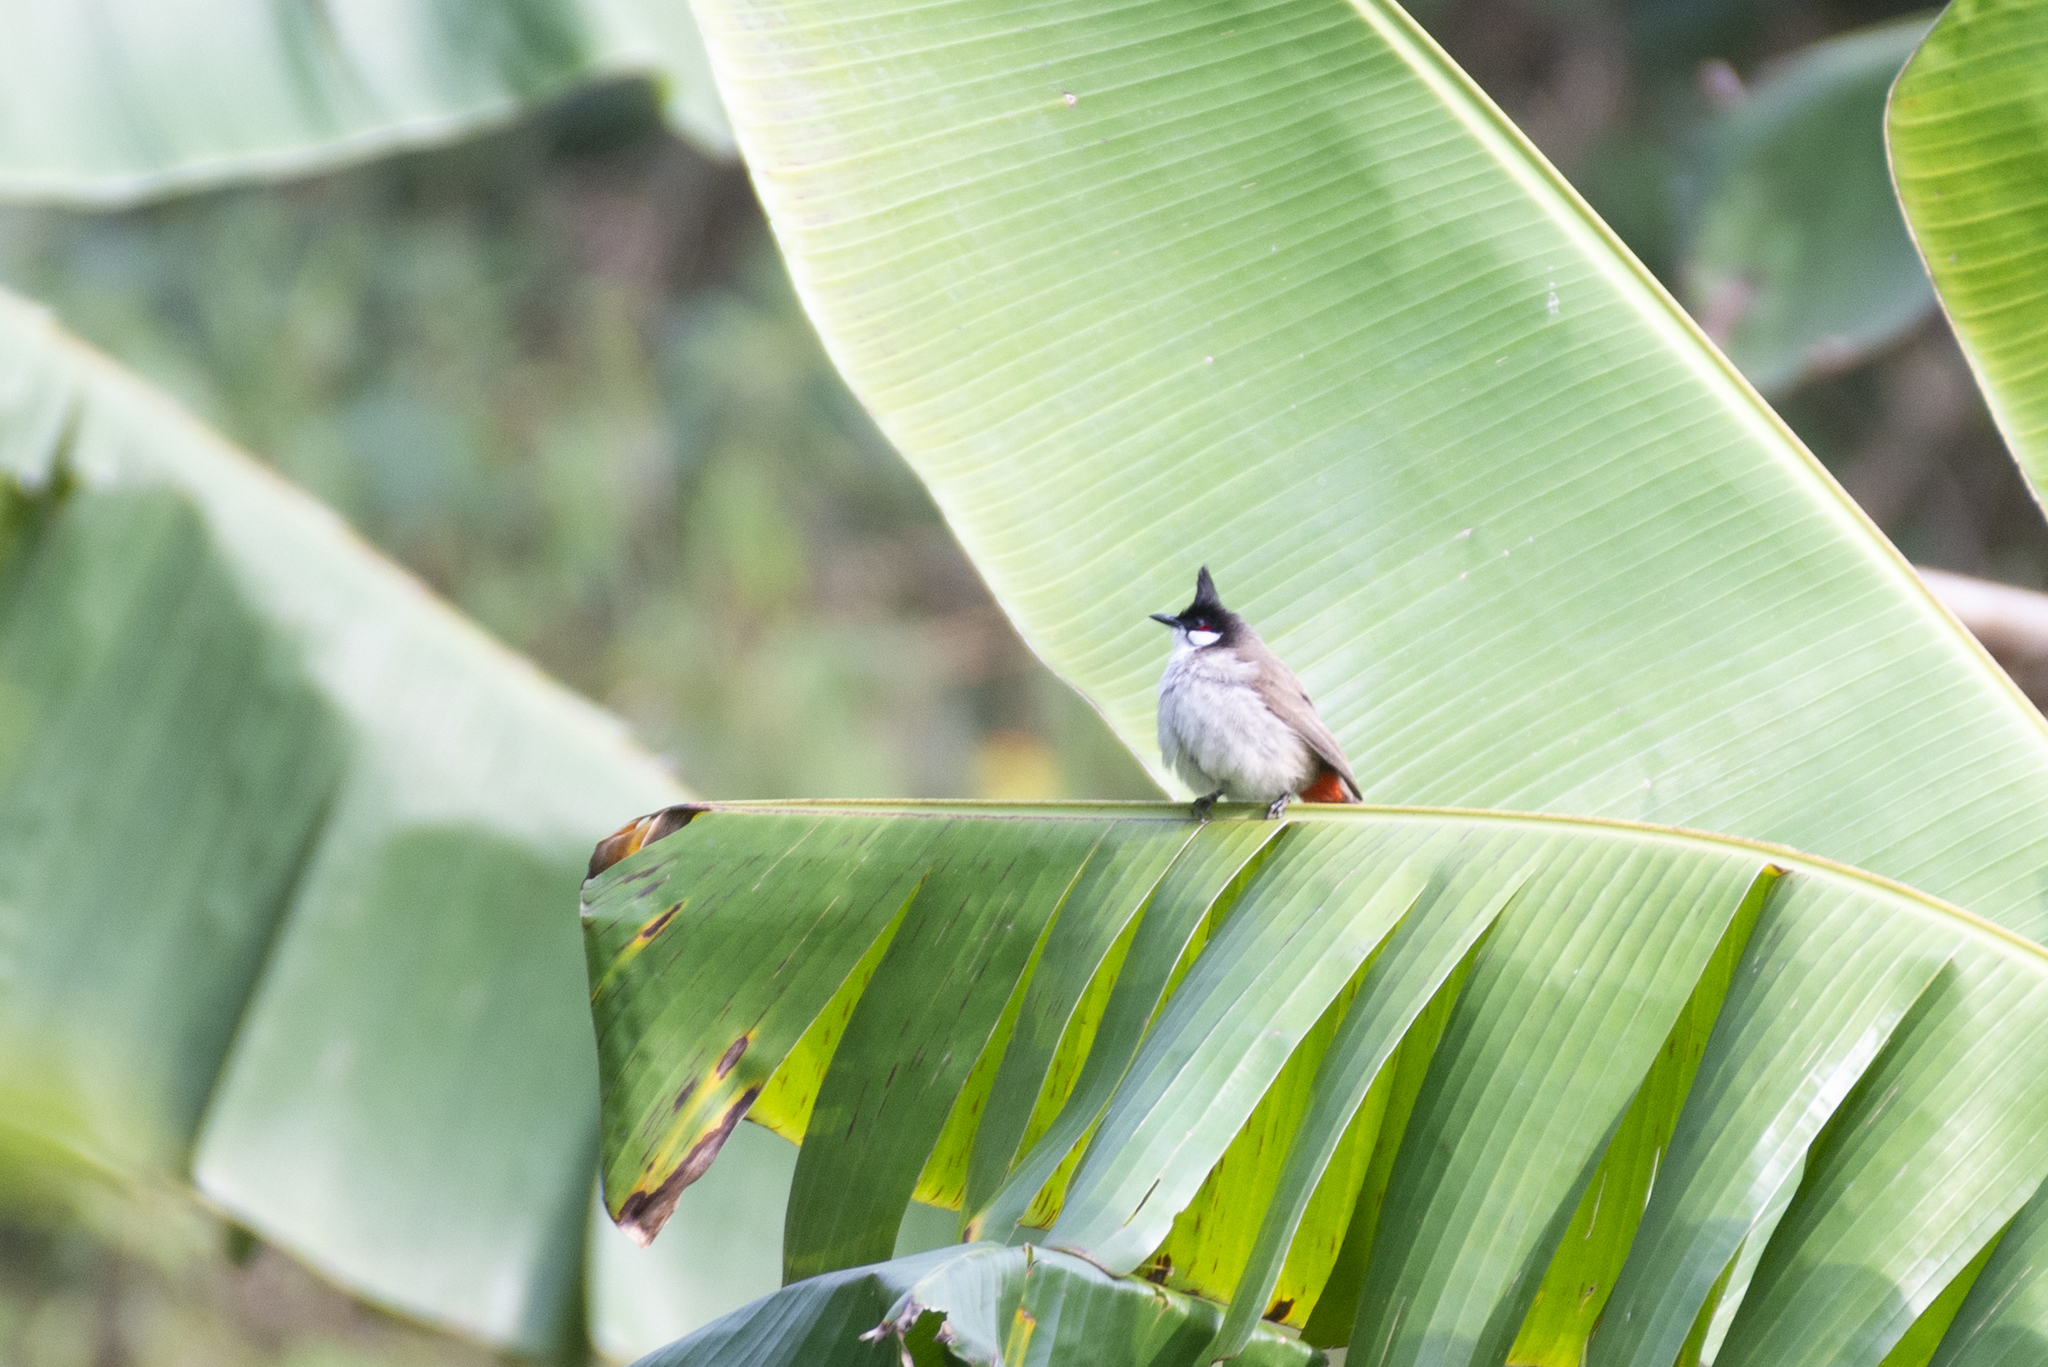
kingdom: Animalia
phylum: Chordata
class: Aves
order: Passeriformes
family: Pycnonotidae
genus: Pycnonotus
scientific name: Pycnonotus jocosus
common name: Red-whiskered bulbul
